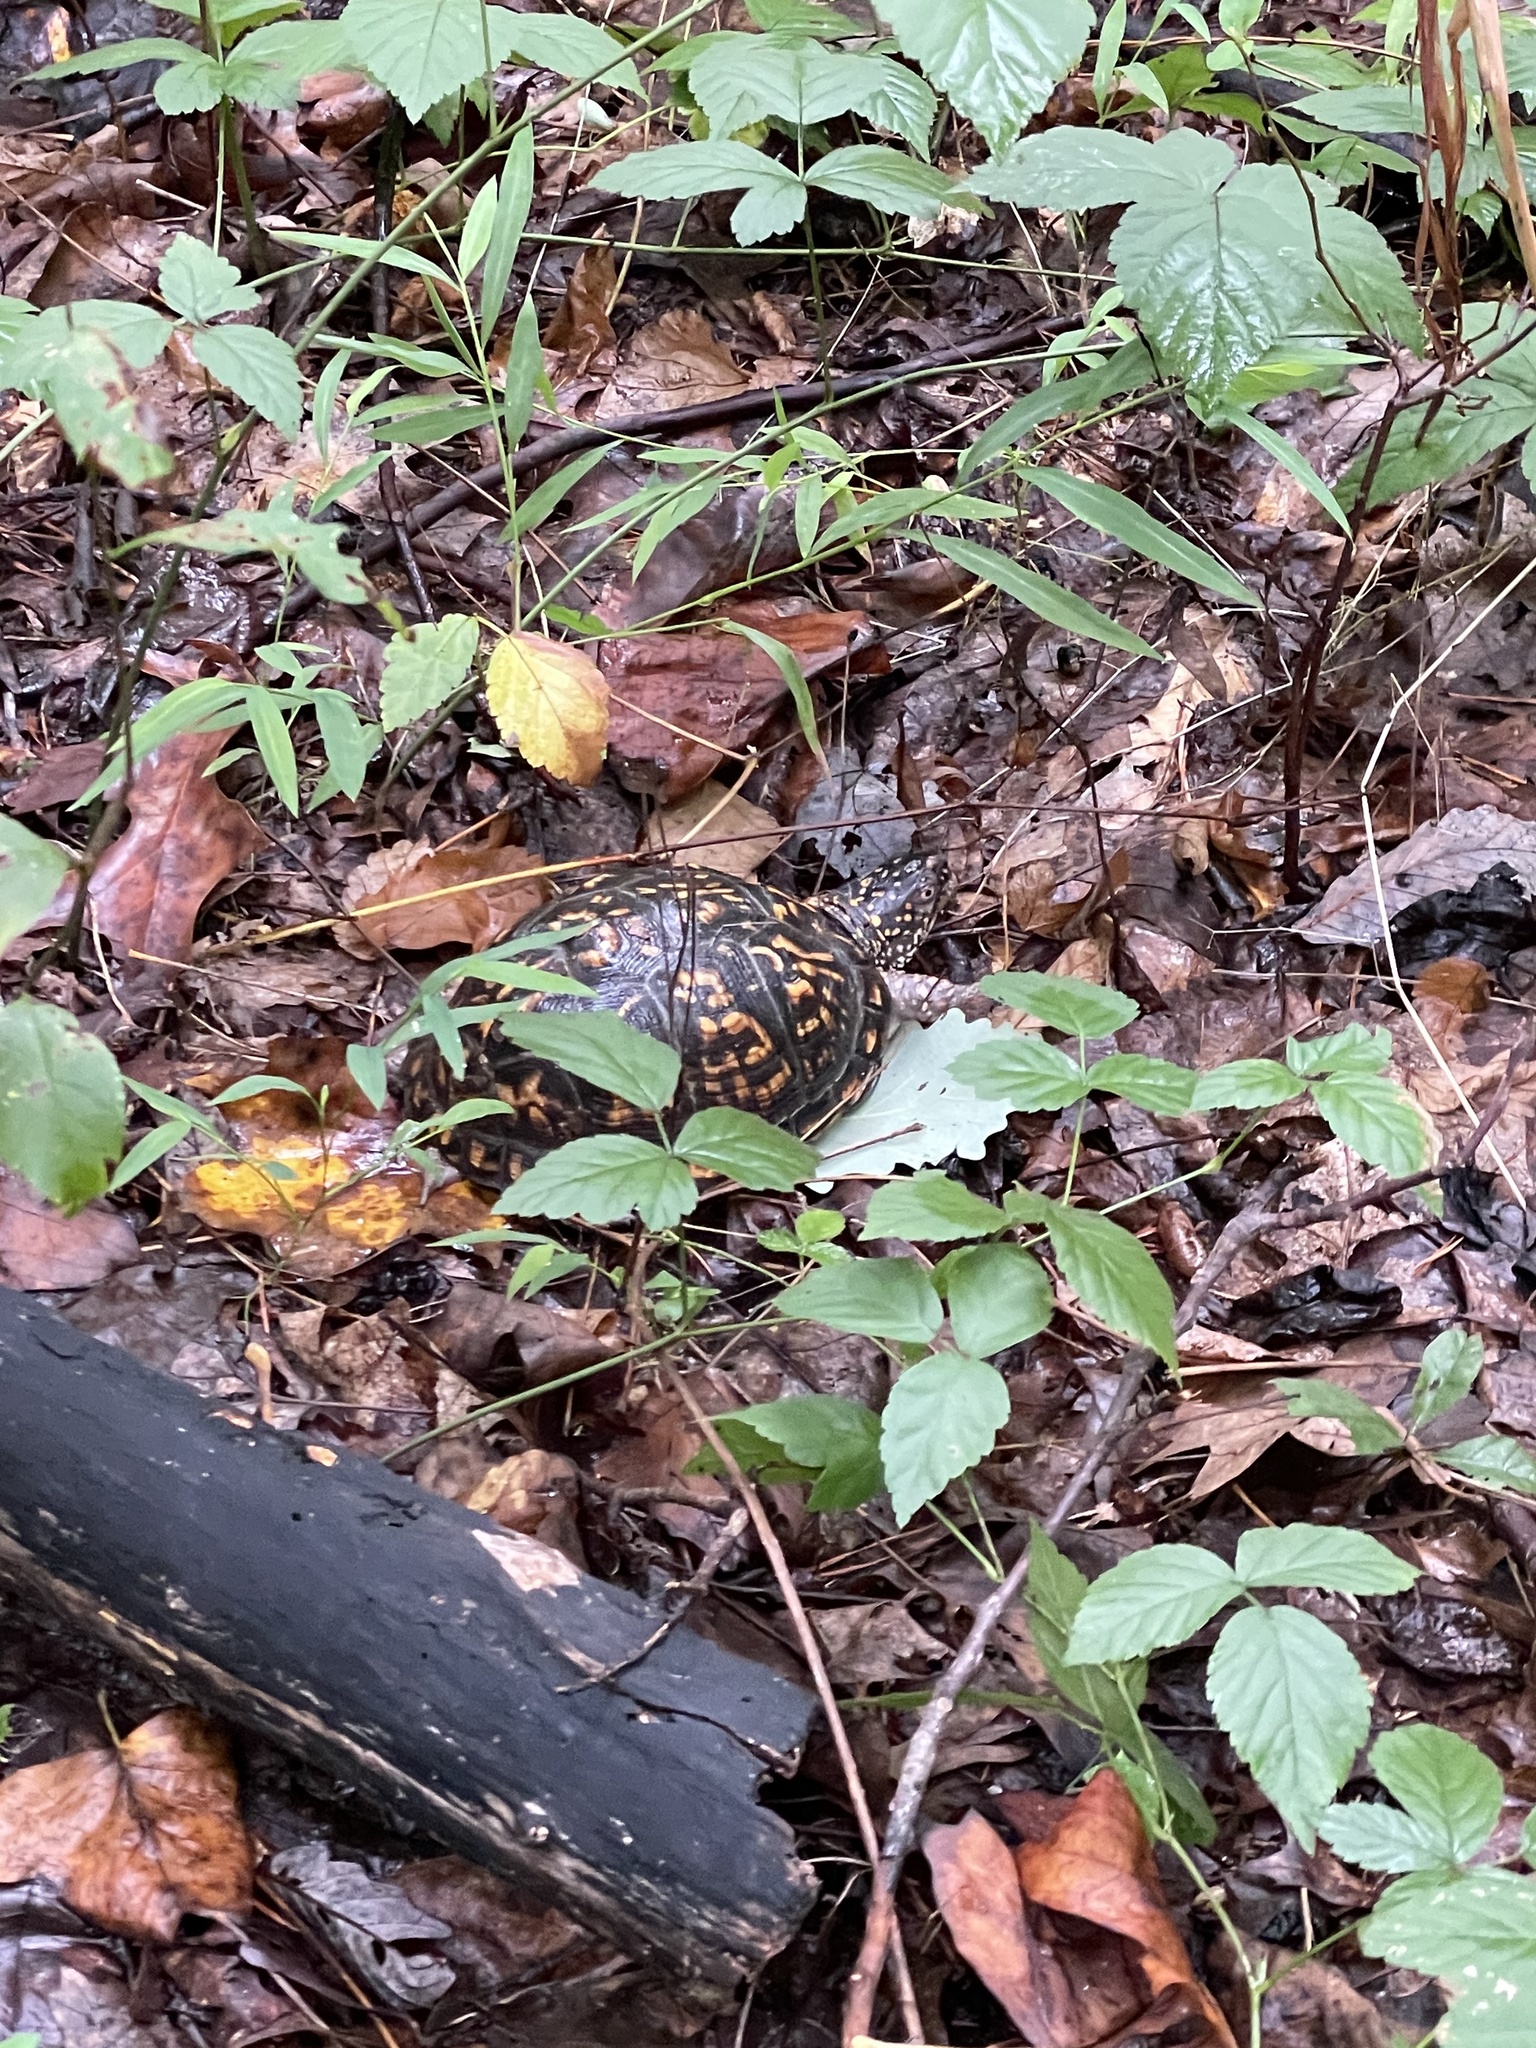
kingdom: Animalia
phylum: Chordata
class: Testudines
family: Emydidae
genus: Terrapene
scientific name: Terrapene carolina
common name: Common box turtle
